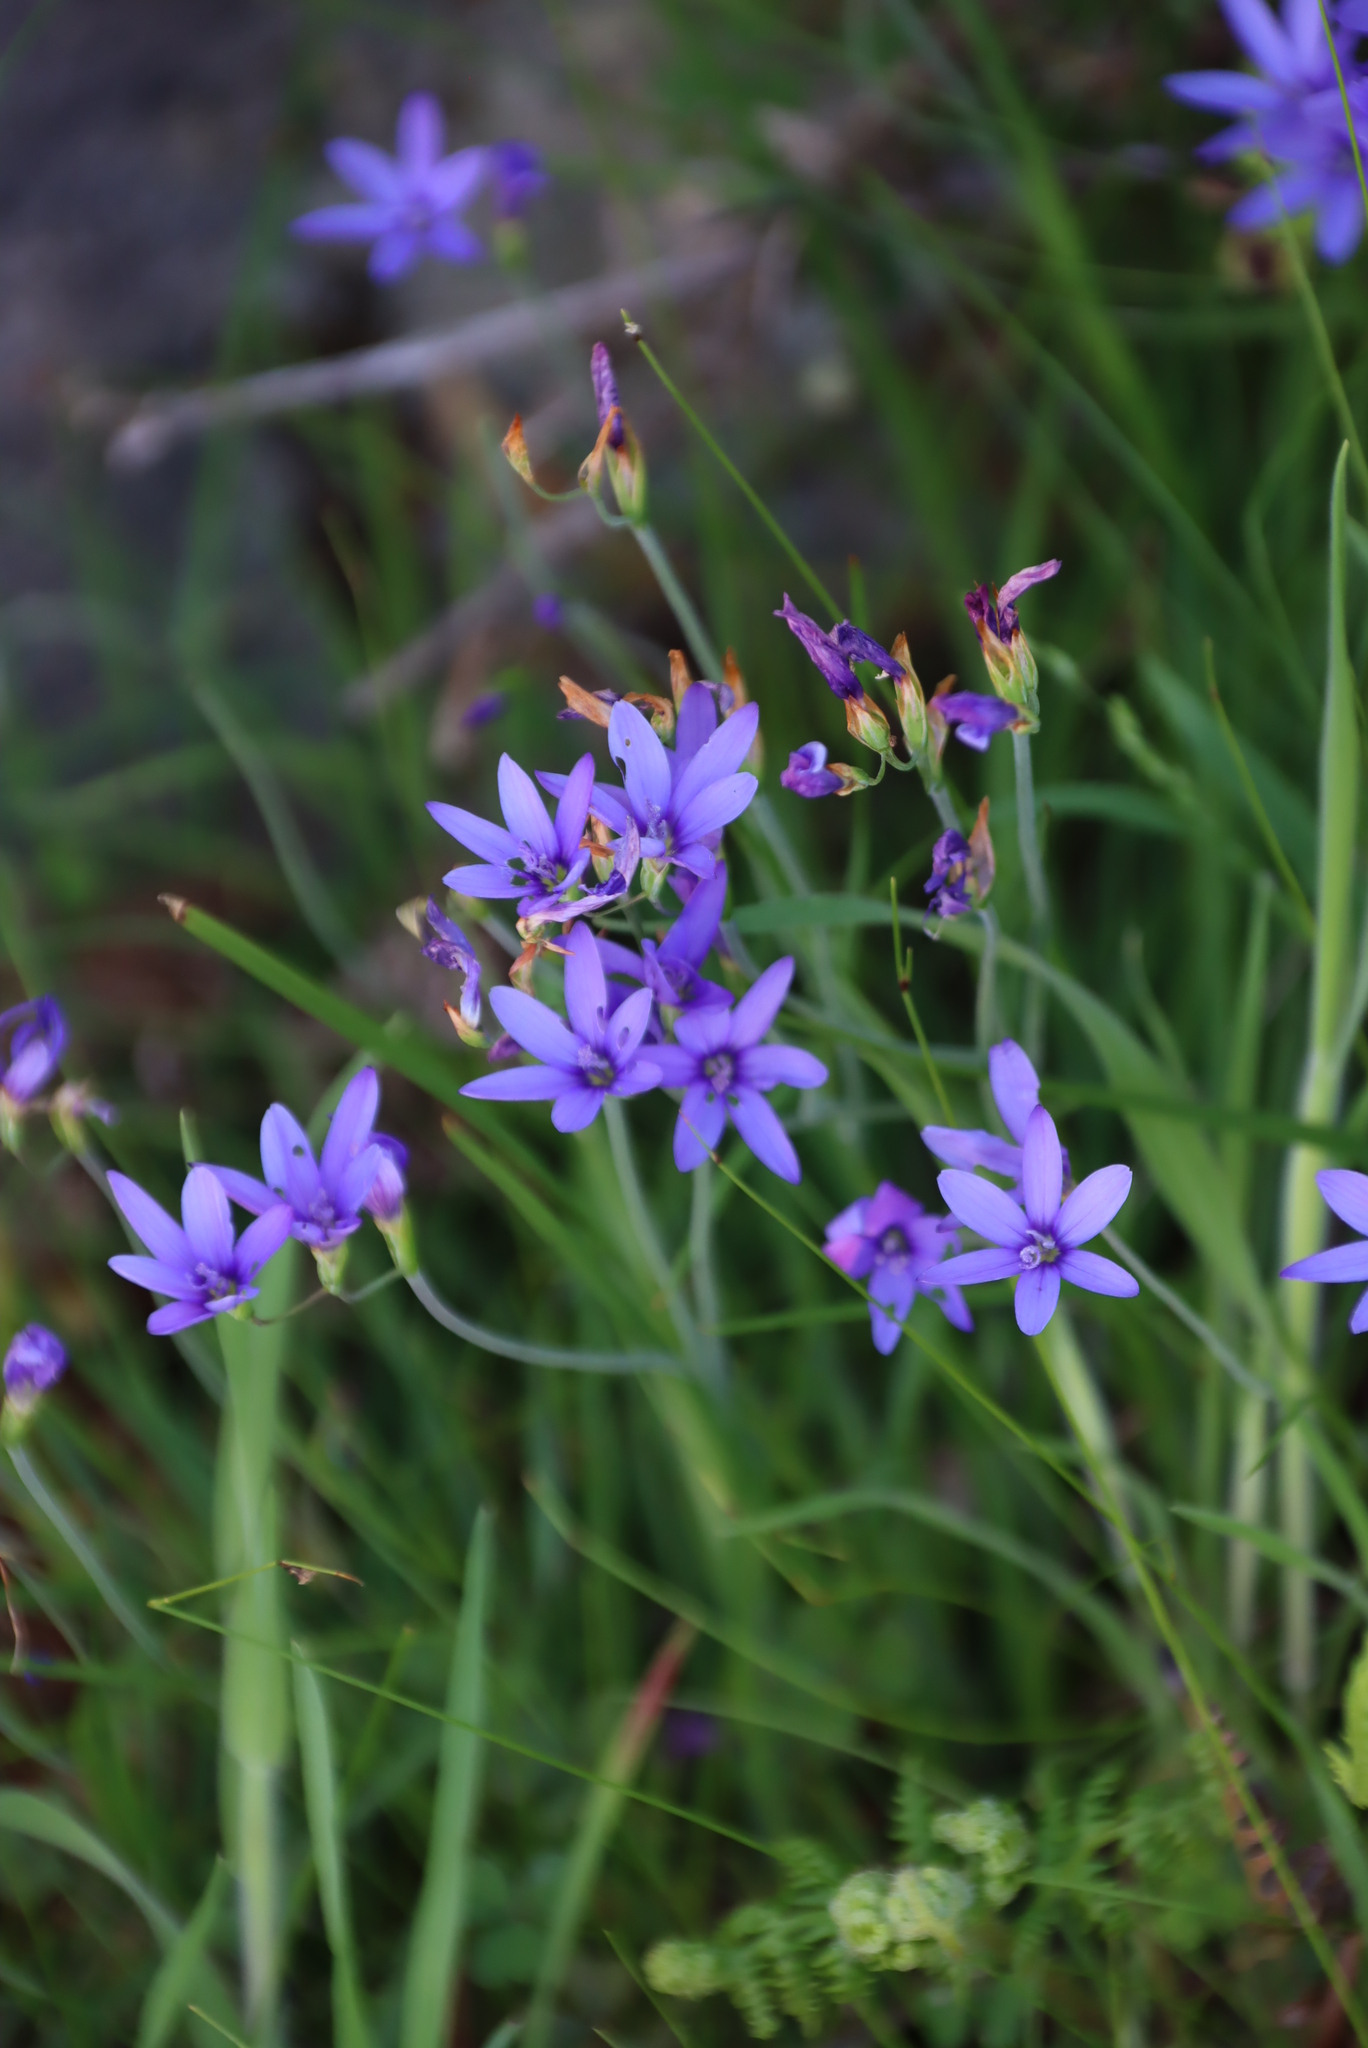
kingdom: Plantae
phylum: Tracheophyta
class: Liliopsida
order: Asparagales
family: Iridaceae
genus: Geissorhiza
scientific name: Geissorhiza aspera
